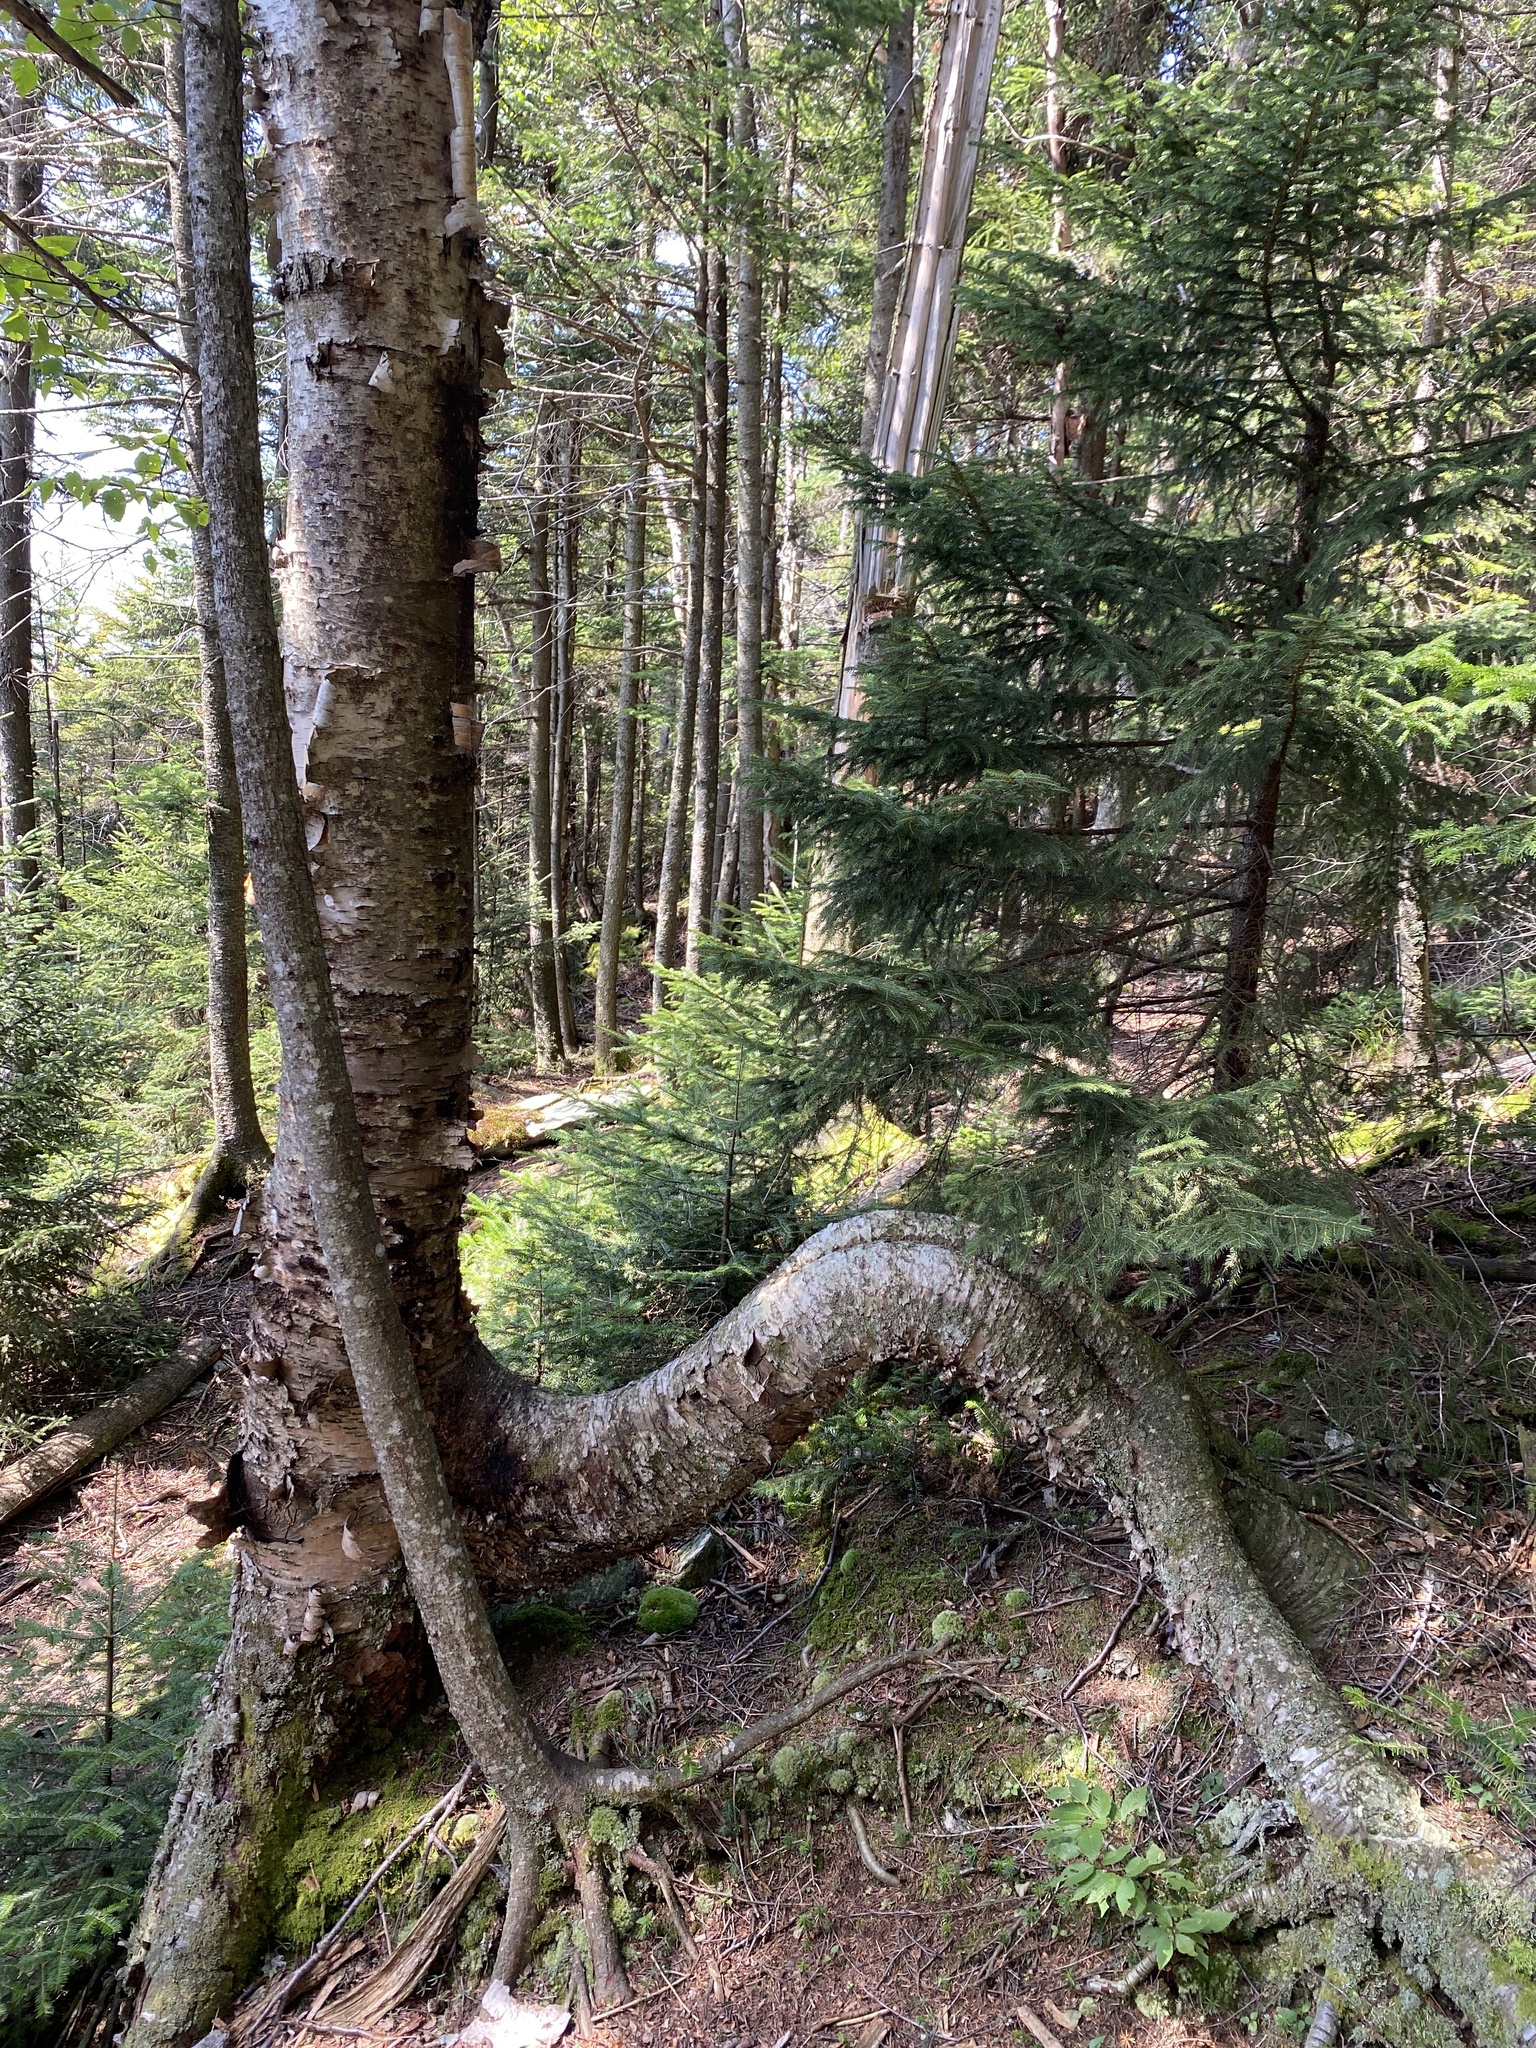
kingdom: Plantae
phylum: Tracheophyta
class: Magnoliopsida
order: Fagales
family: Betulaceae
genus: Betula
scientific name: Betula alleghaniensis
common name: Yellow birch
